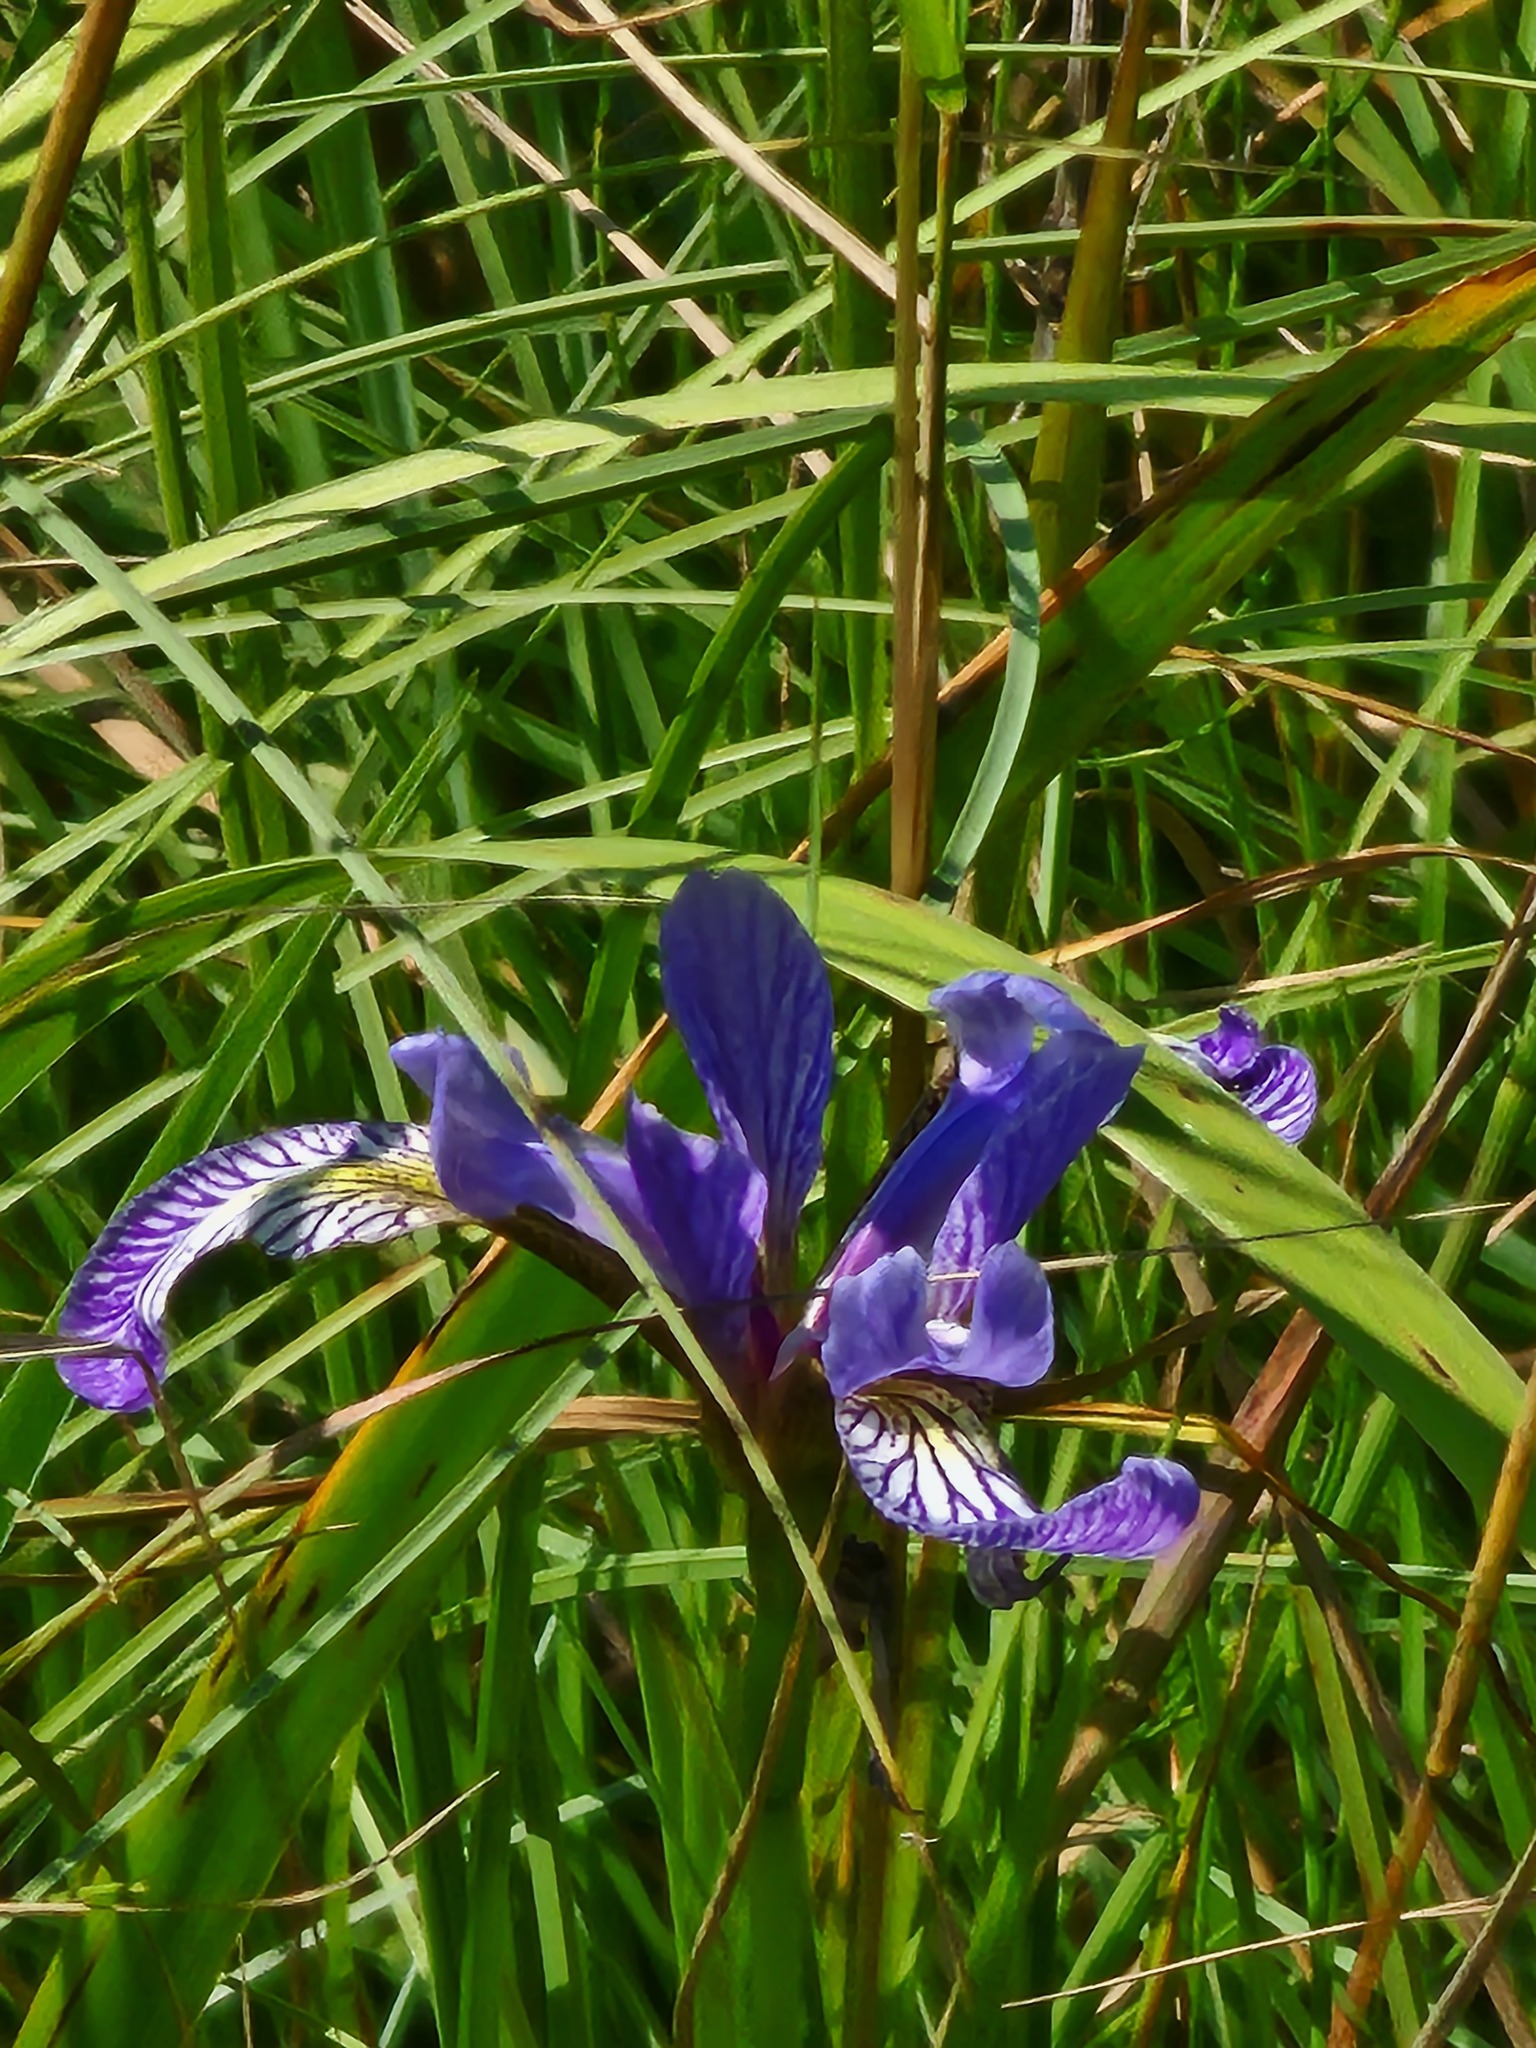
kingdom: Plantae
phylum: Tracheophyta
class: Liliopsida
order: Asparagales
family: Iridaceae
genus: Iris
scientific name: Iris versicolor
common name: Purple iris
